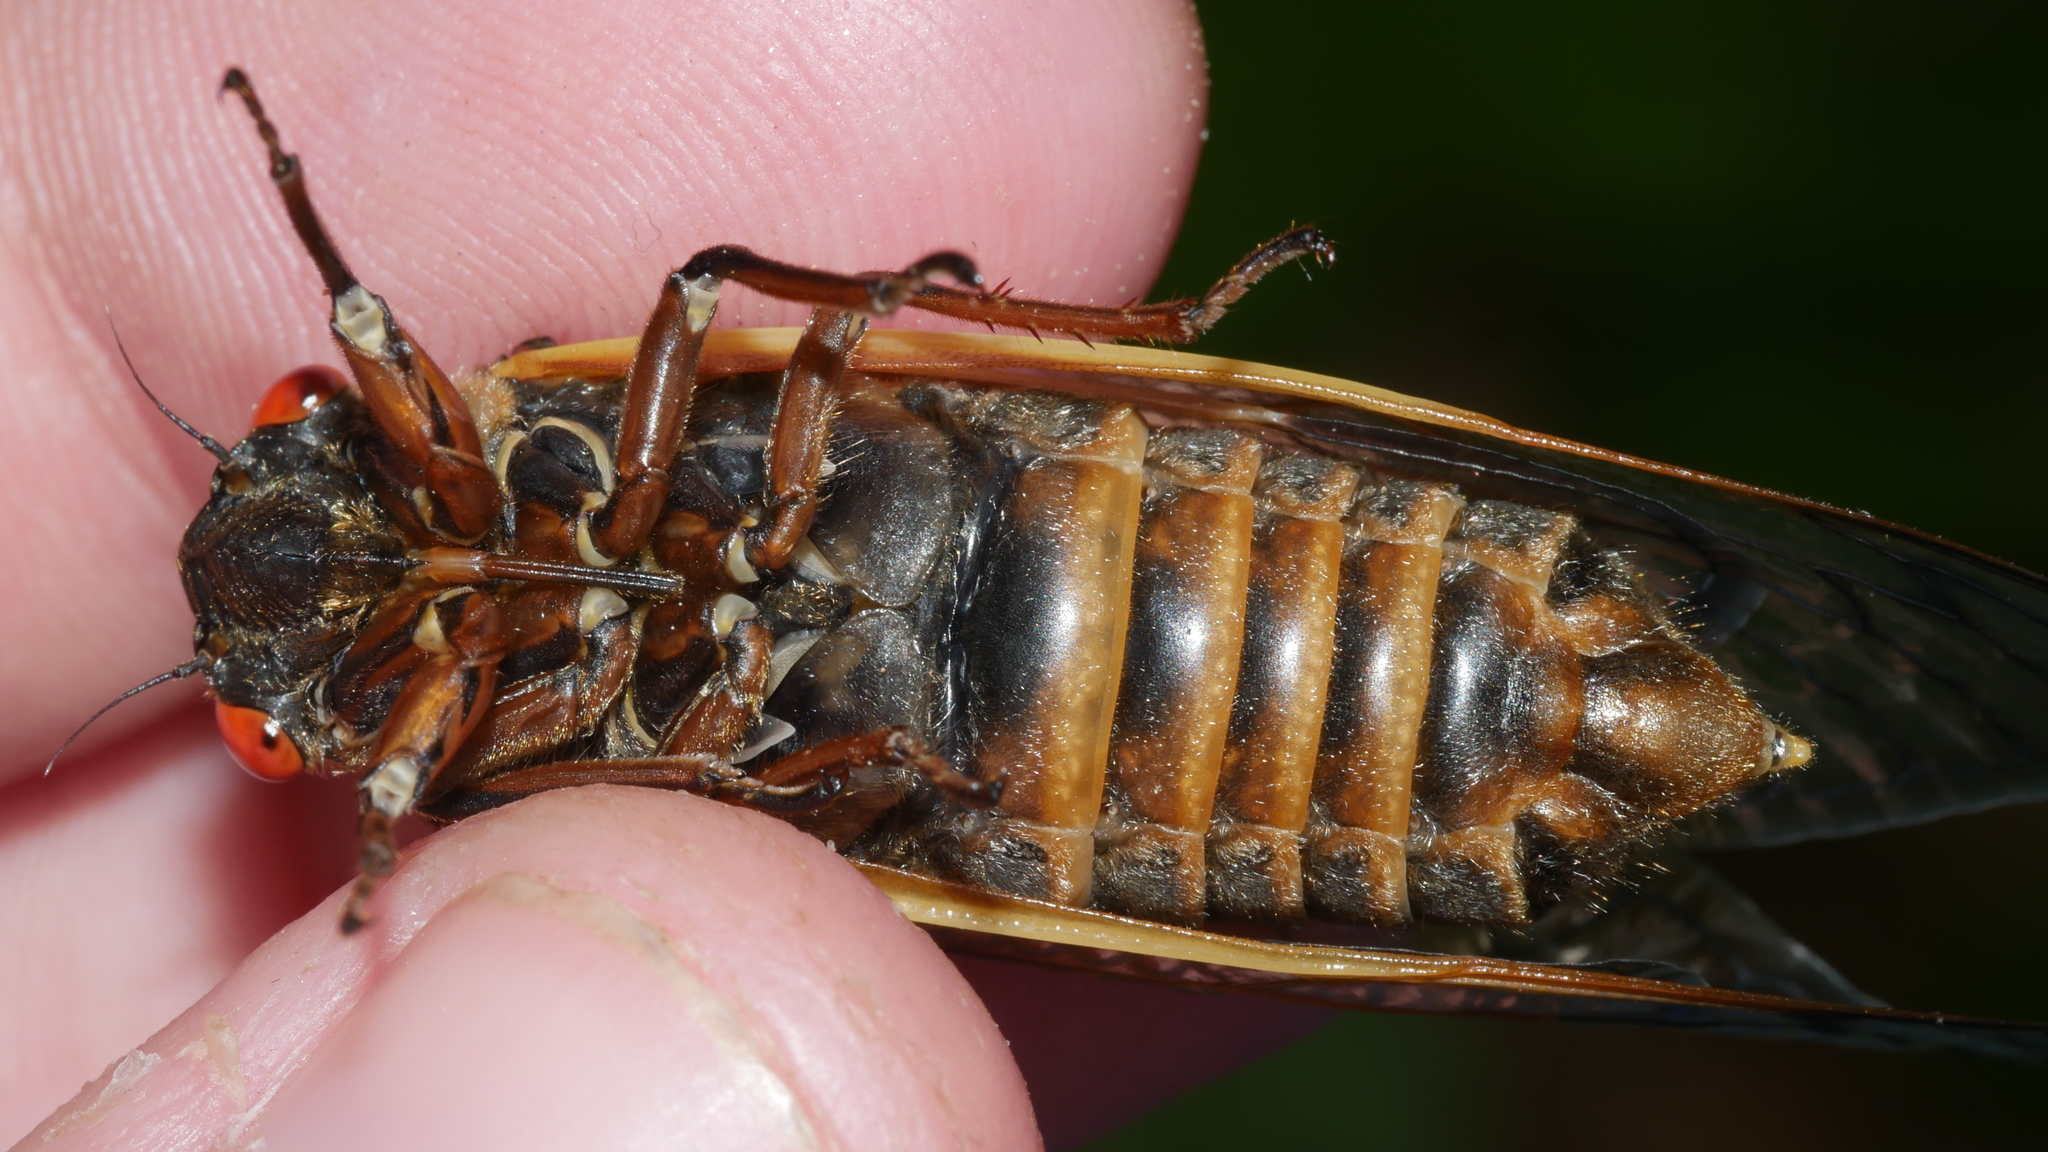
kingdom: Animalia
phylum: Arthropoda
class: Insecta
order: Hemiptera
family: Cicadidae
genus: Magicicada
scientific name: Magicicada septendecim
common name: Periodical cicada
